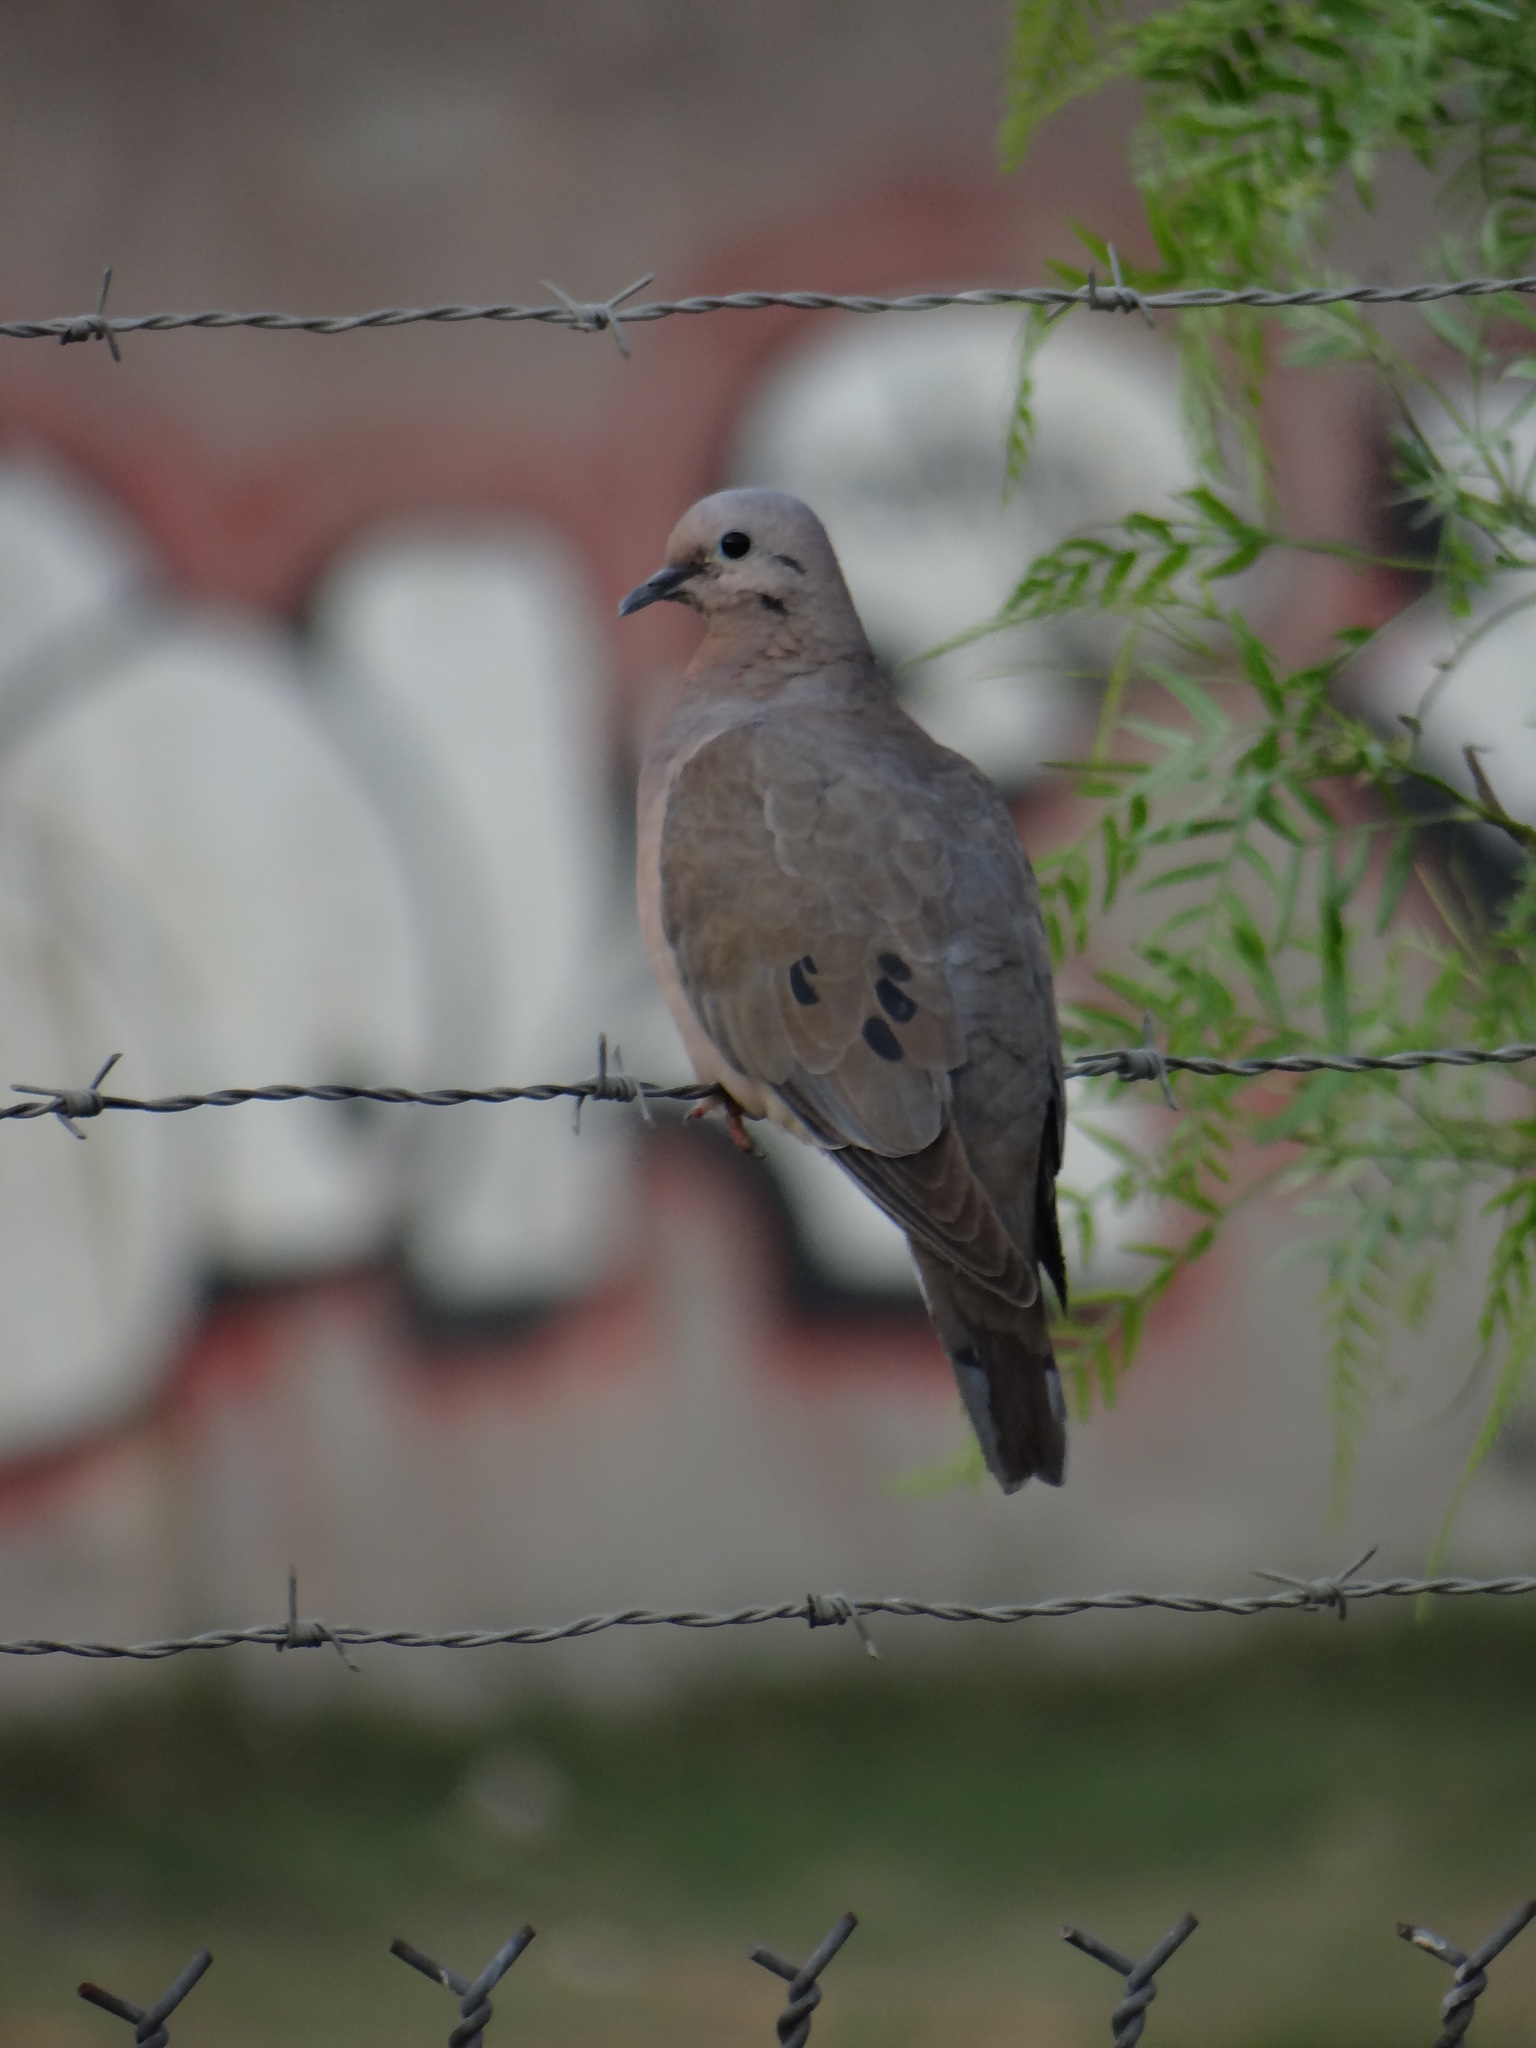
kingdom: Animalia
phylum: Chordata
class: Aves
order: Columbiformes
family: Columbidae
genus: Zenaida
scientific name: Zenaida auriculata
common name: Eared dove
